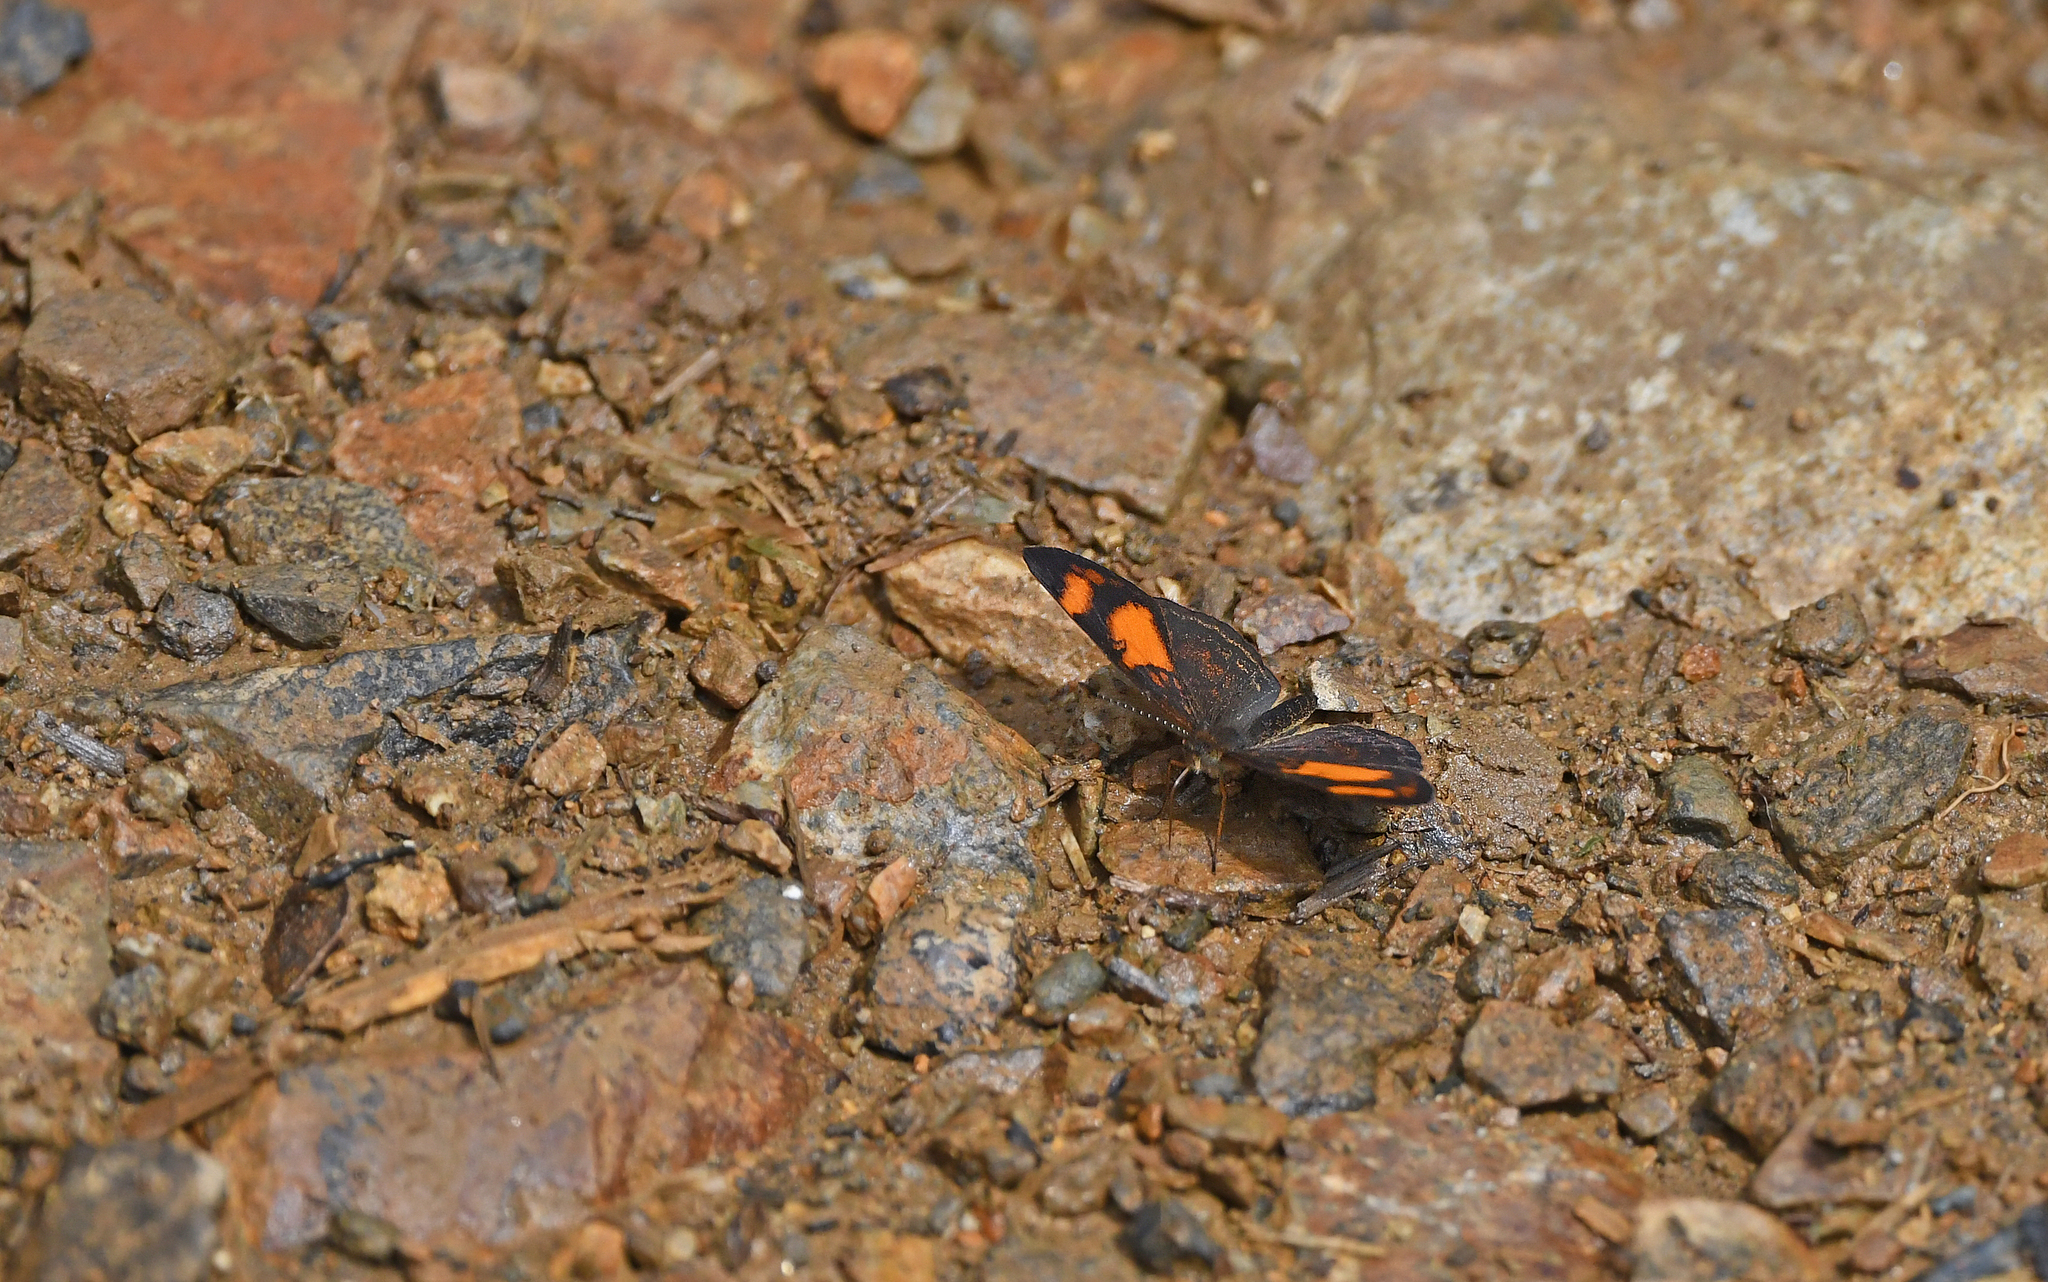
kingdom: Animalia
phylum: Arthropoda
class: Insecta
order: Lepidoptera
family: Nymphalidae
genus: Tegosa
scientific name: Tegosa etia
